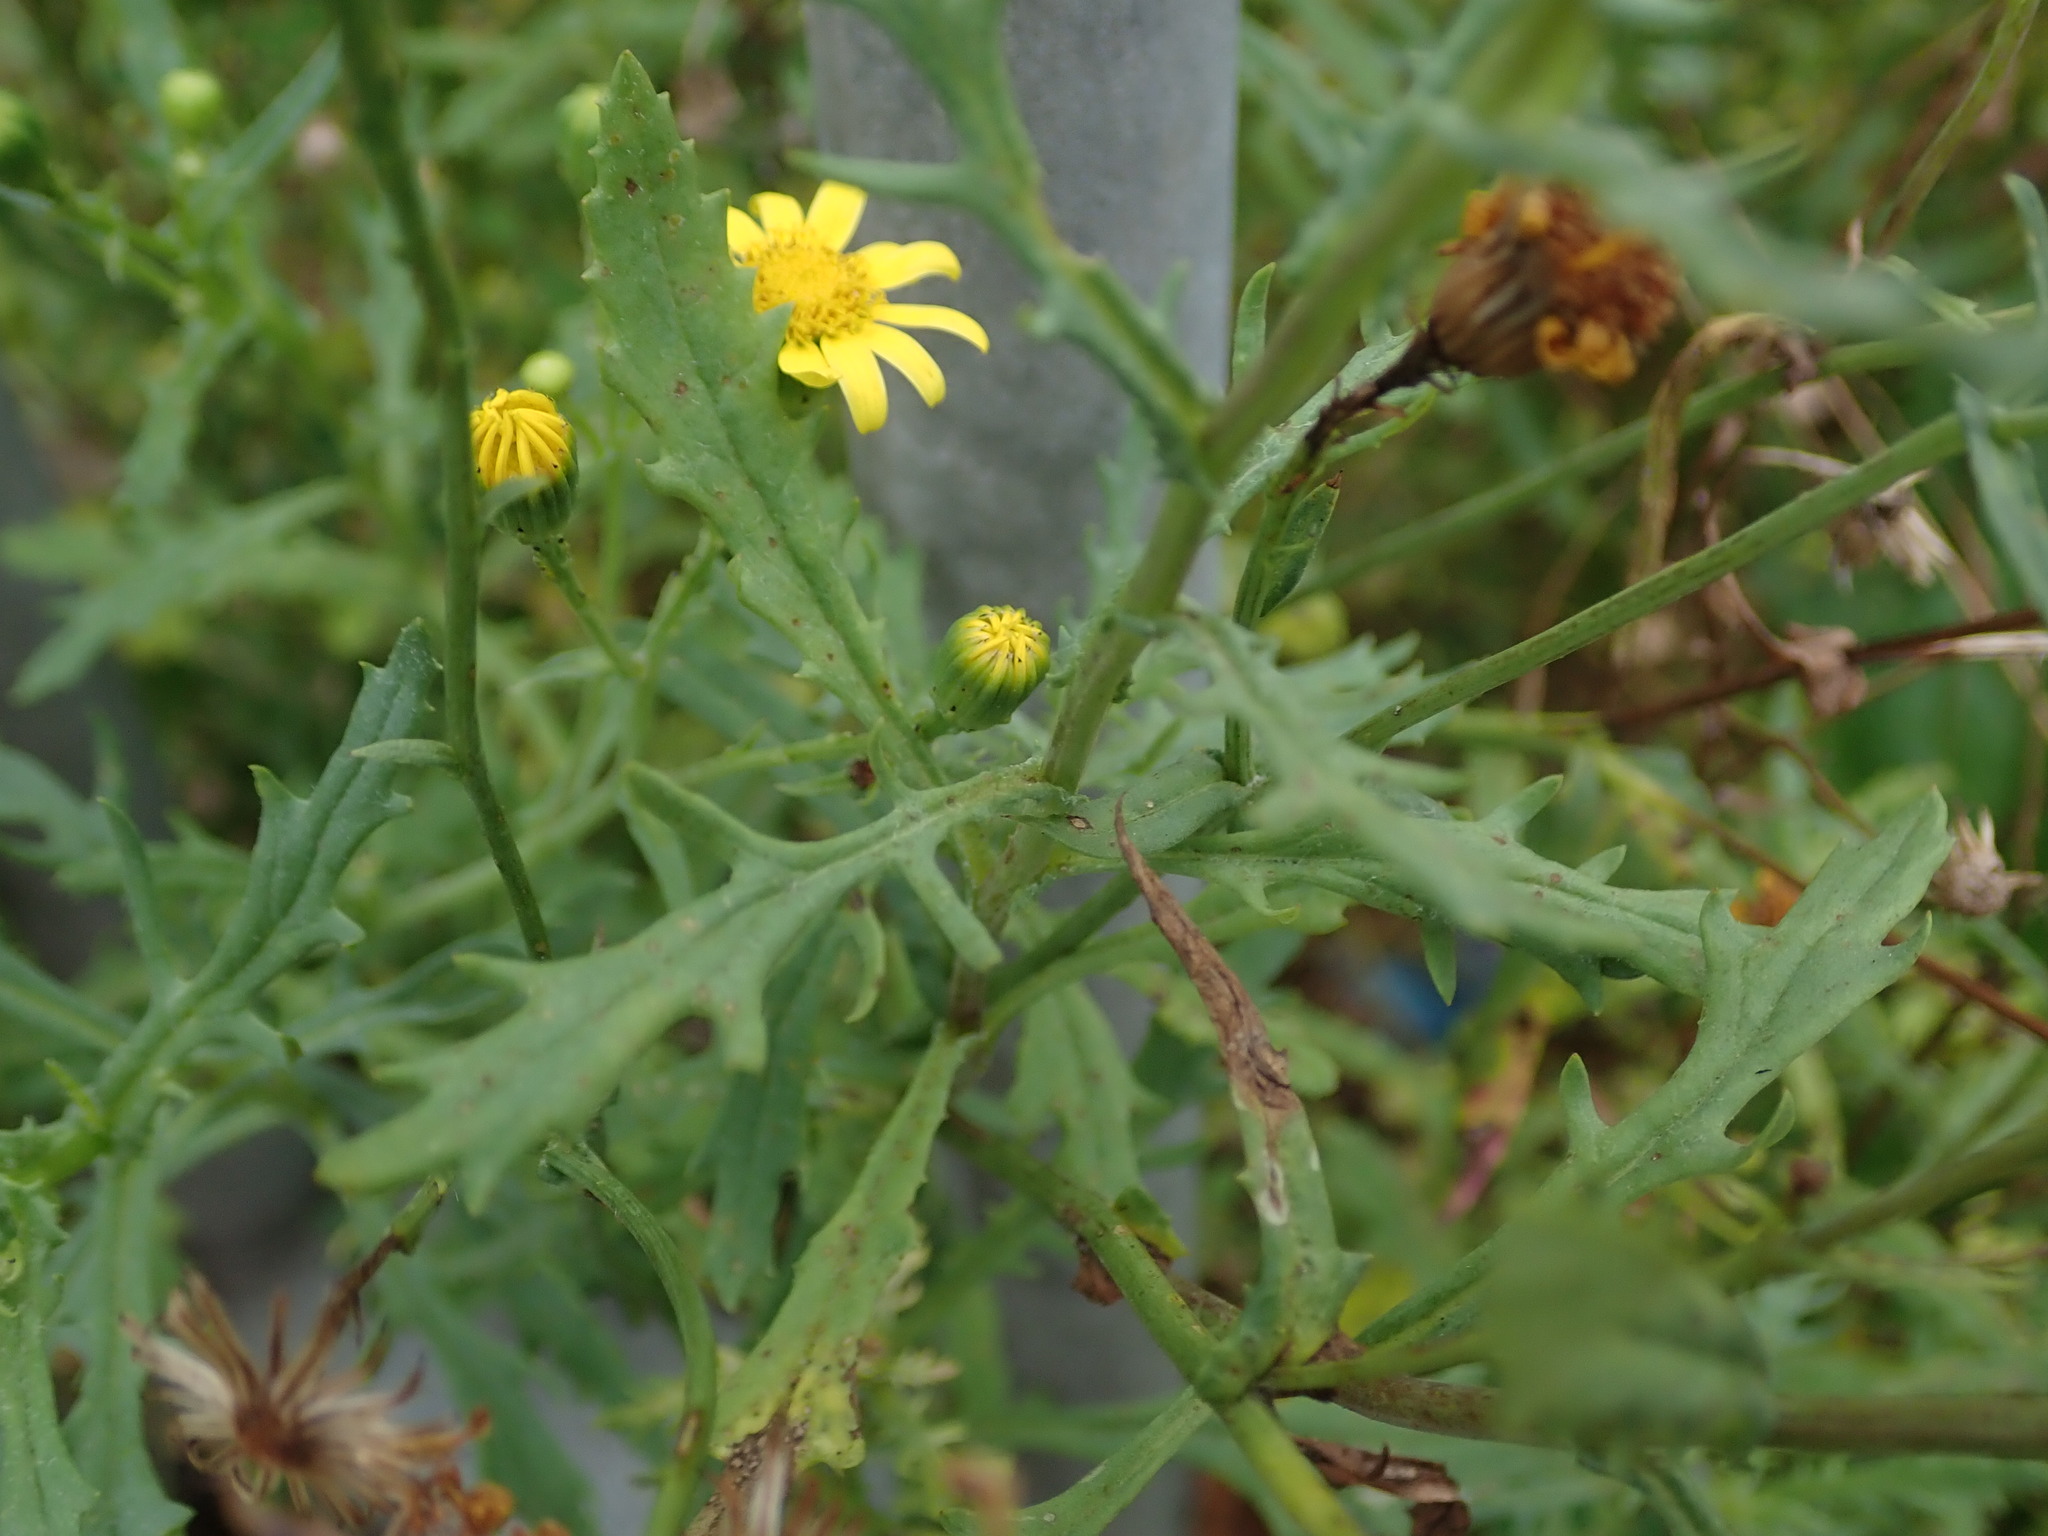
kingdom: Plantae
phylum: Tracheophyta
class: Magnoliopsida
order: Asterales
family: Asteraceae
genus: Senecio
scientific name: Senecio squalidus
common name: Oxford ragwort
